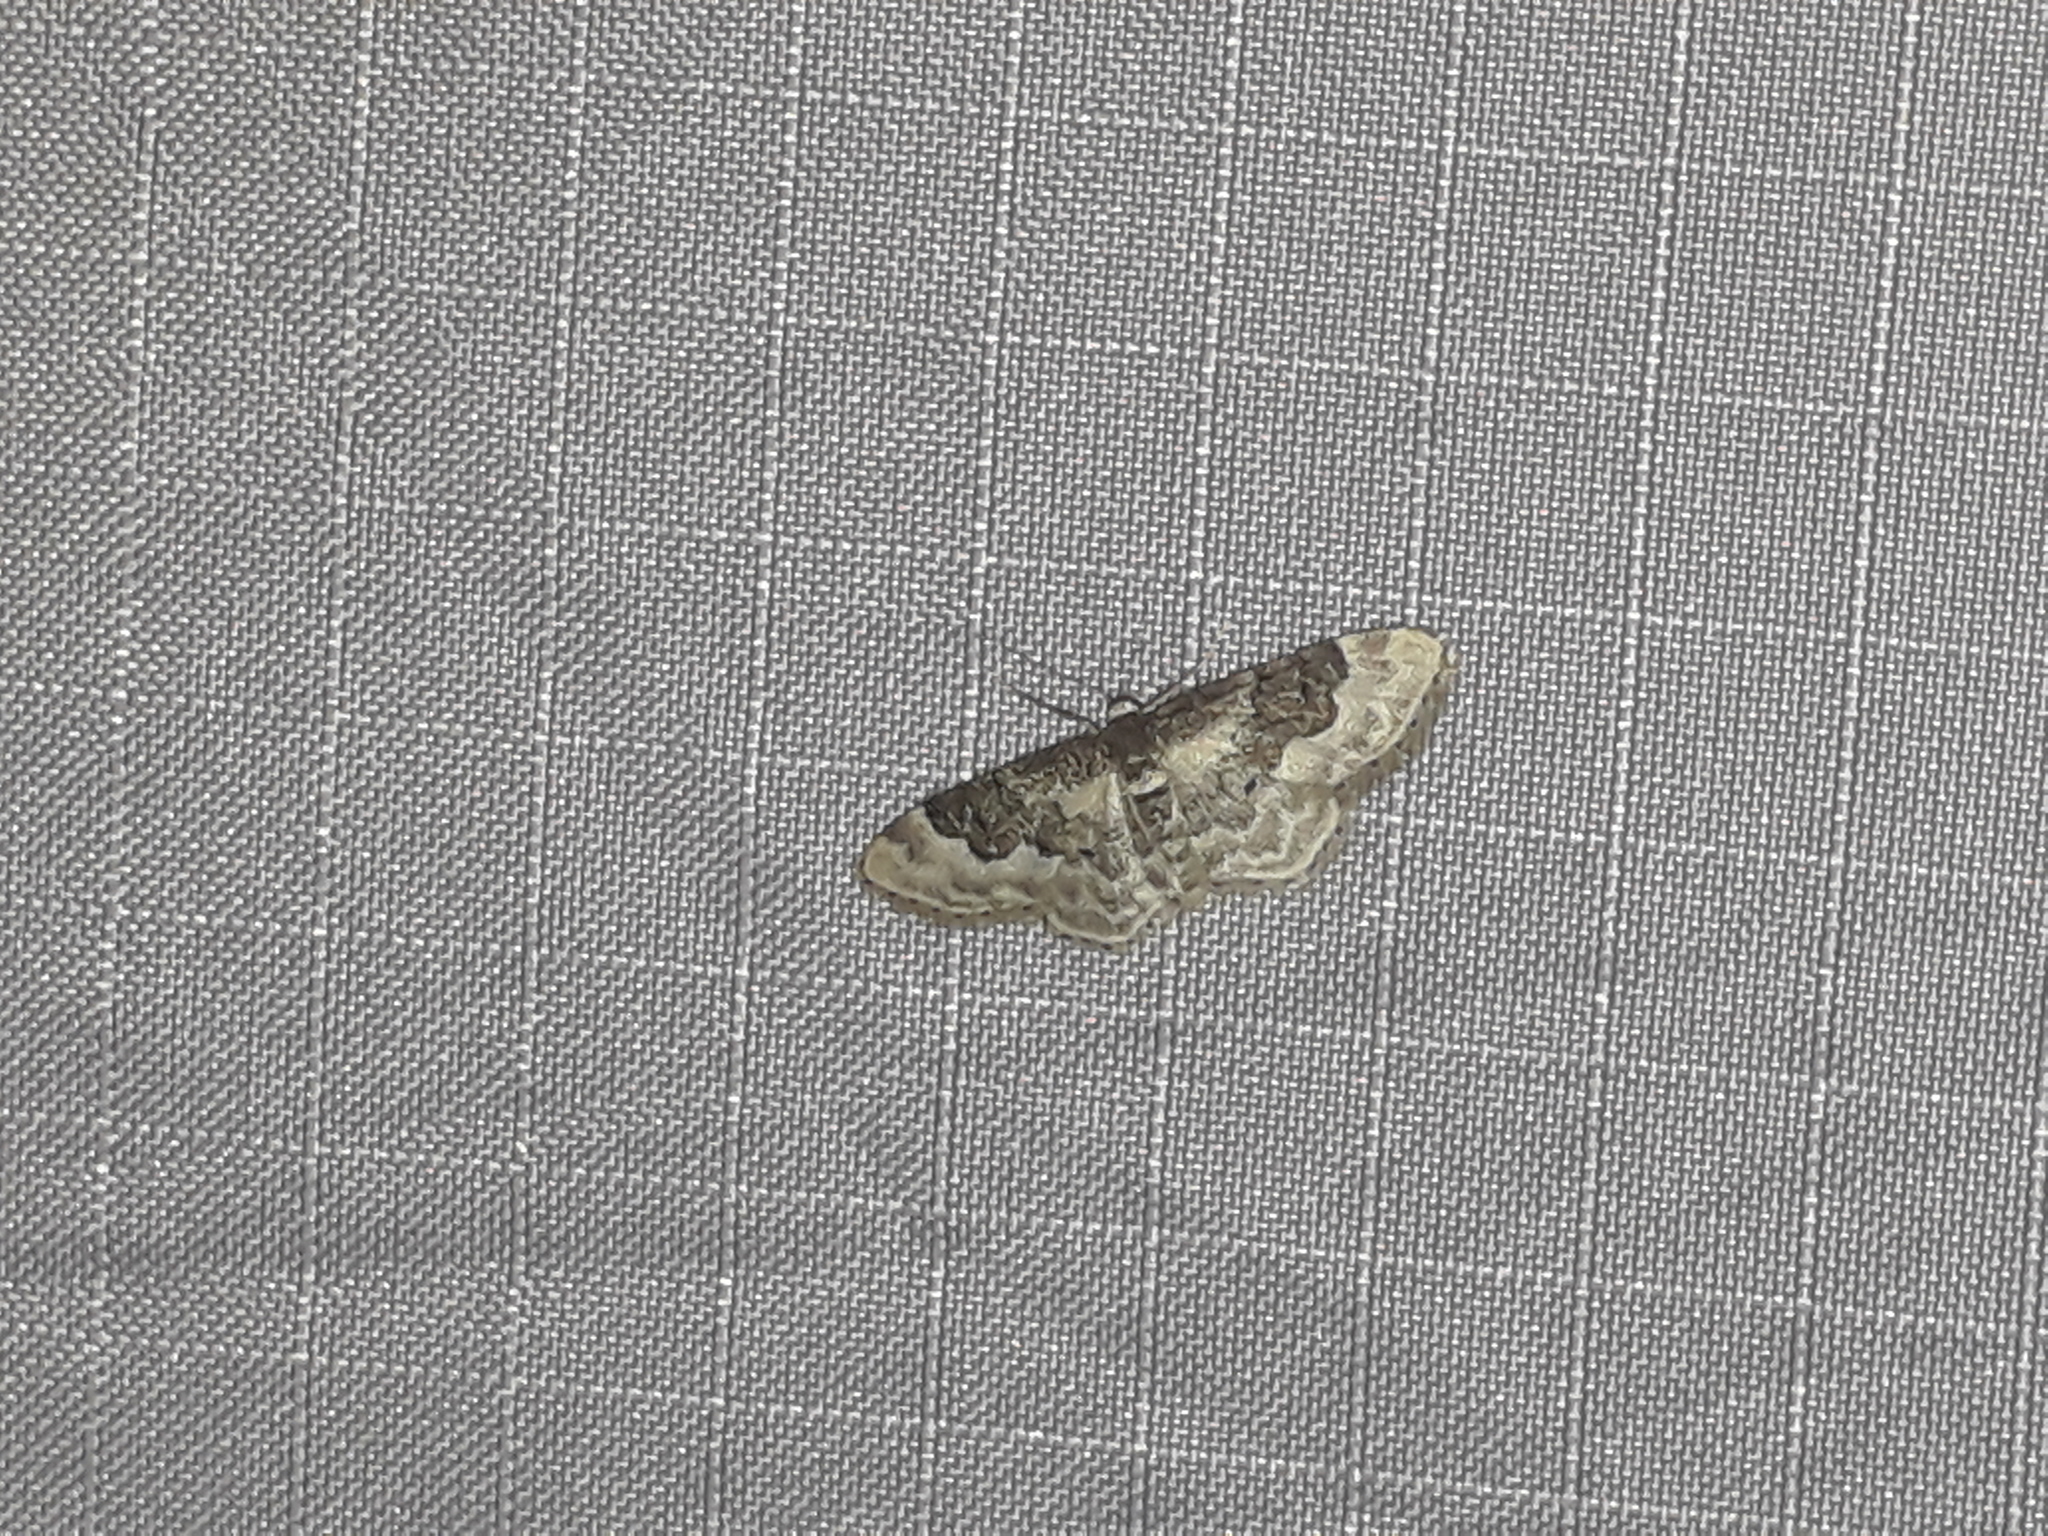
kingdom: Animalia
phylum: Arthropoda
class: Insecta
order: Lepidoptera
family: Geometridae
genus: Idaea
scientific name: Idaea rusticata
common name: Least carpet
